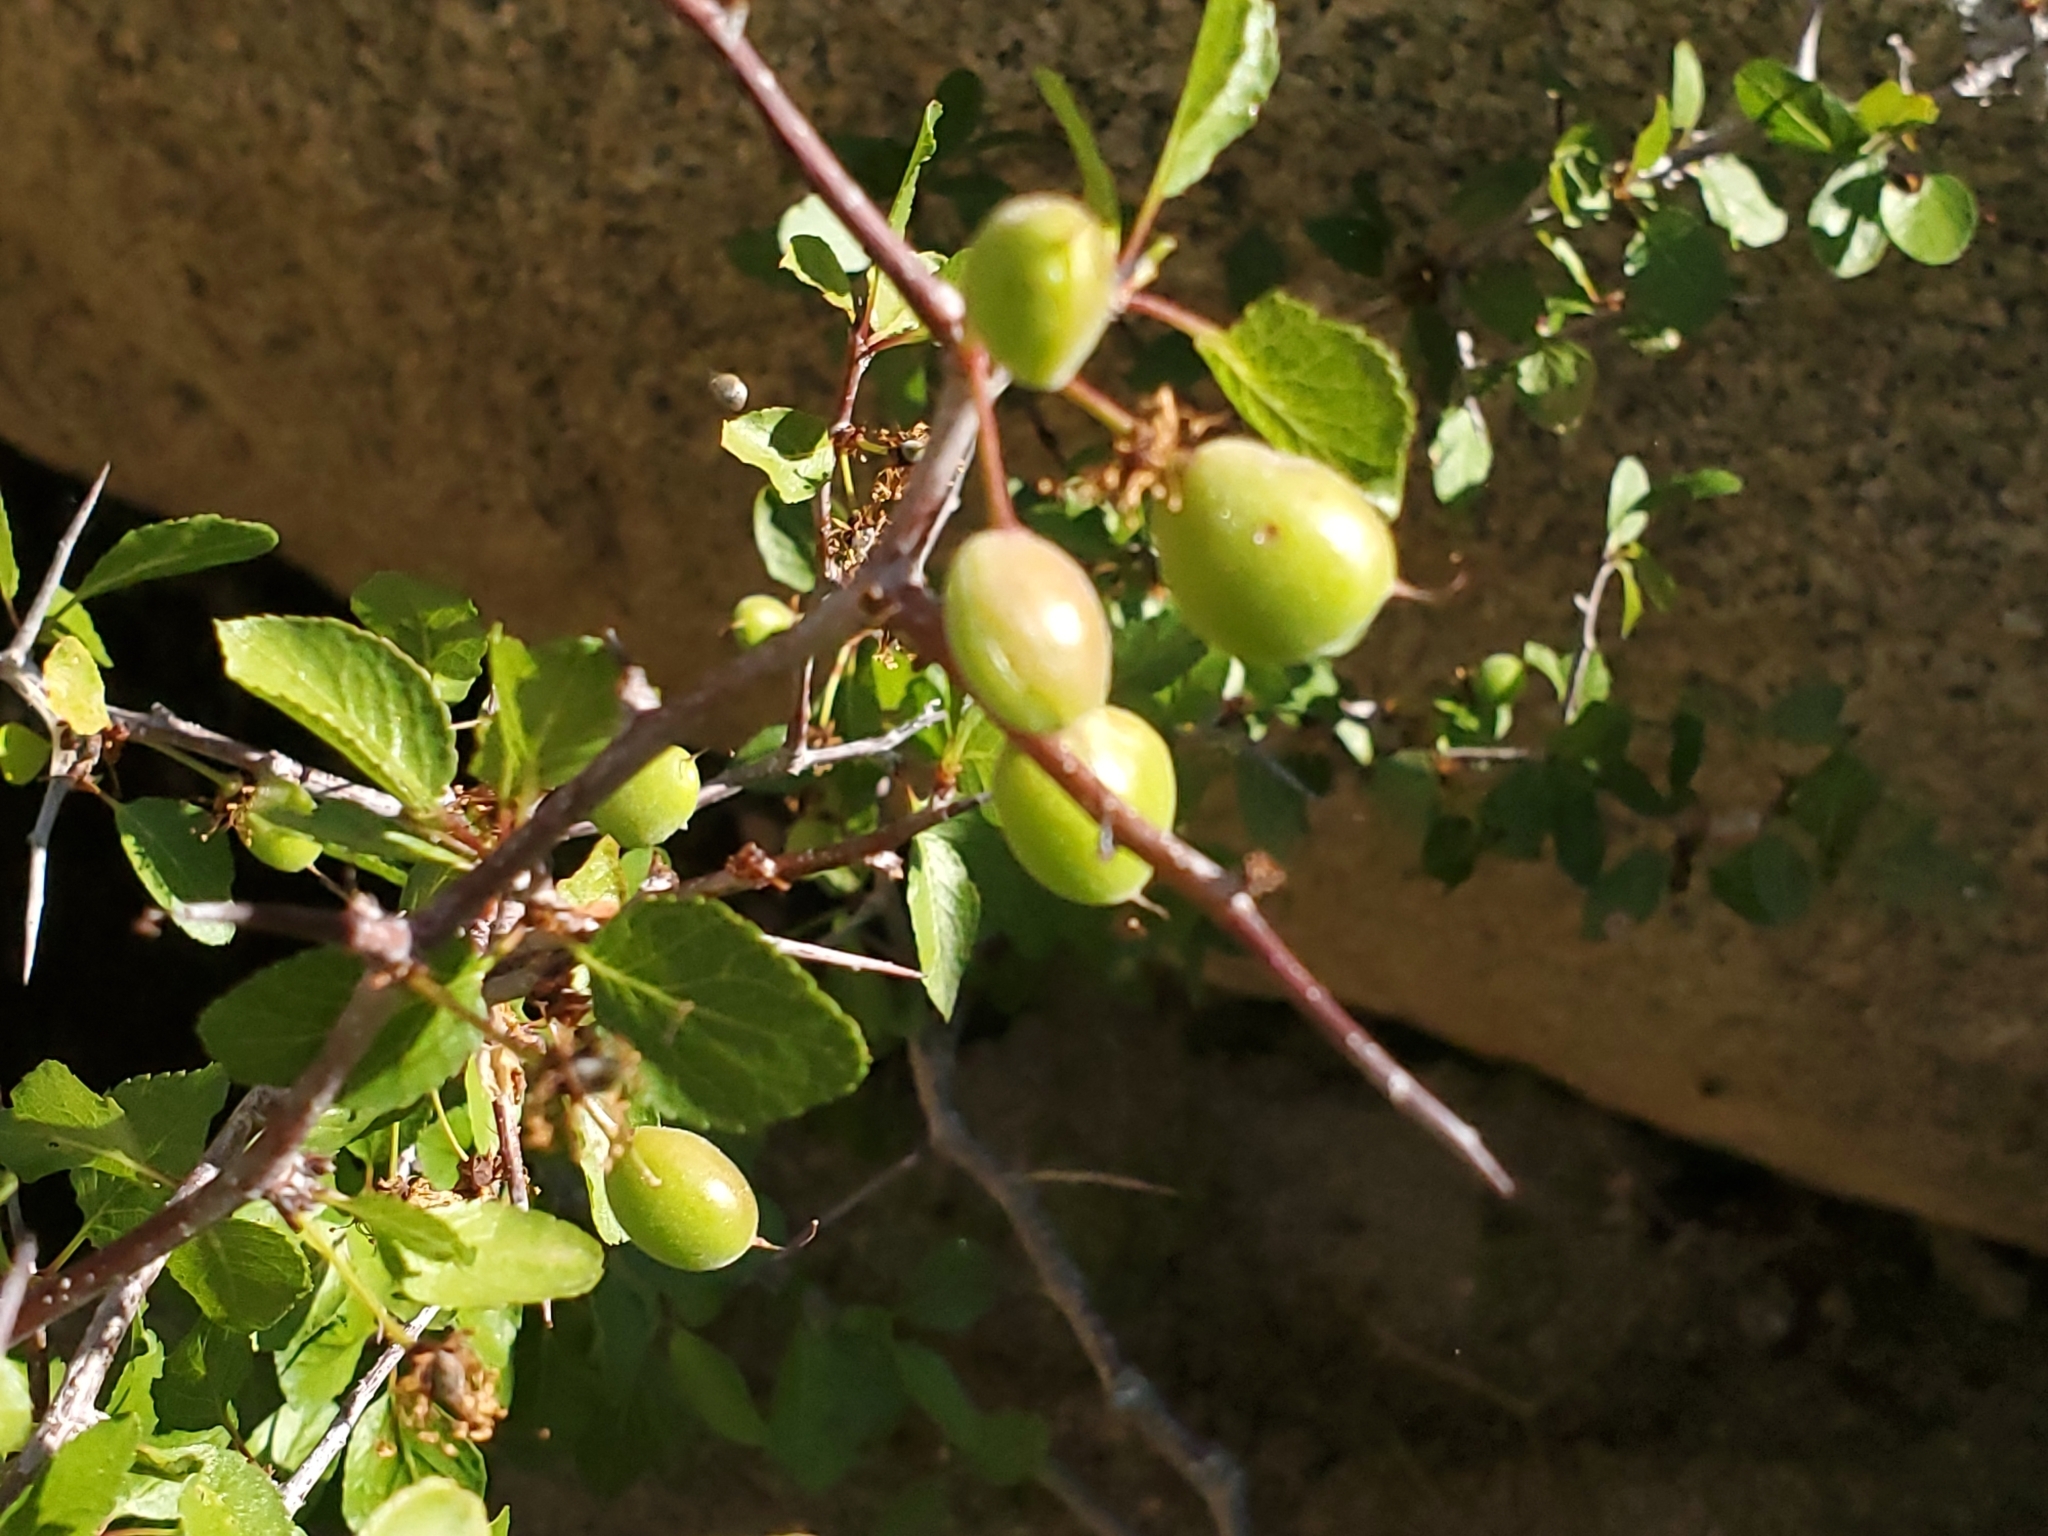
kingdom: Plantae
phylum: Tracheophyta
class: Magnoliopsida
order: Rosales
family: Rosaceae
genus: Prunus
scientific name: Prunus fremontii
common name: Desert apricot
